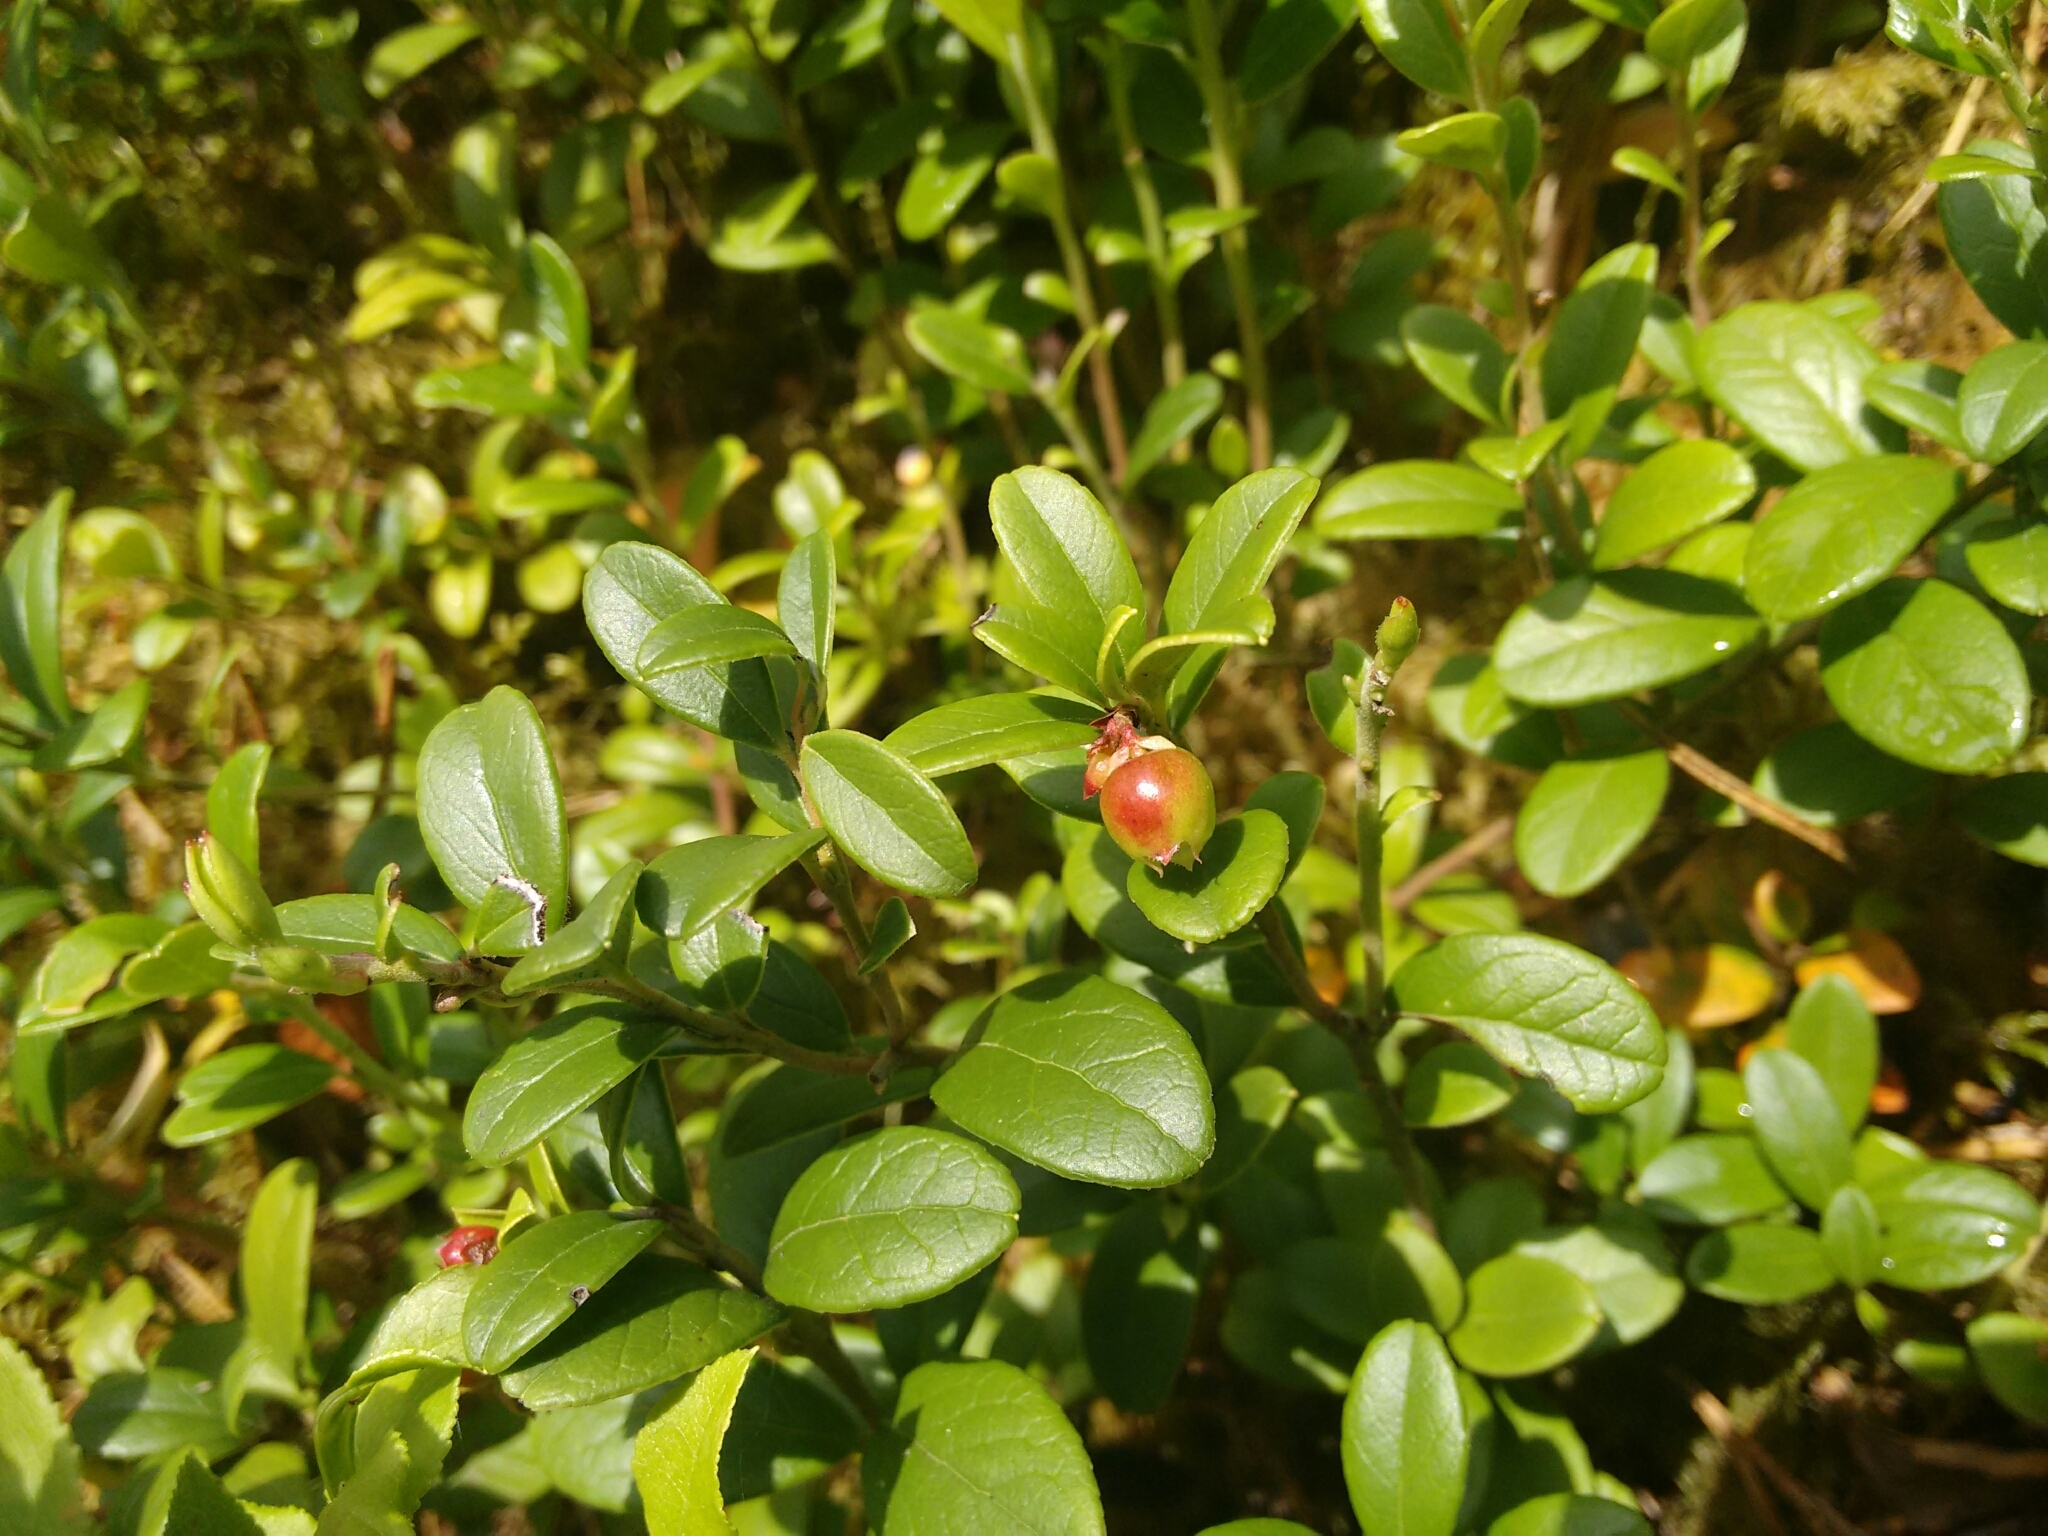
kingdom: Plantae
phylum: Tracheophyta
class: Magnoliopsida
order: Ericales
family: Ericaceae
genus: Vaccinium
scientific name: Vaccinium vitis-idaea
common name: Cowberry
